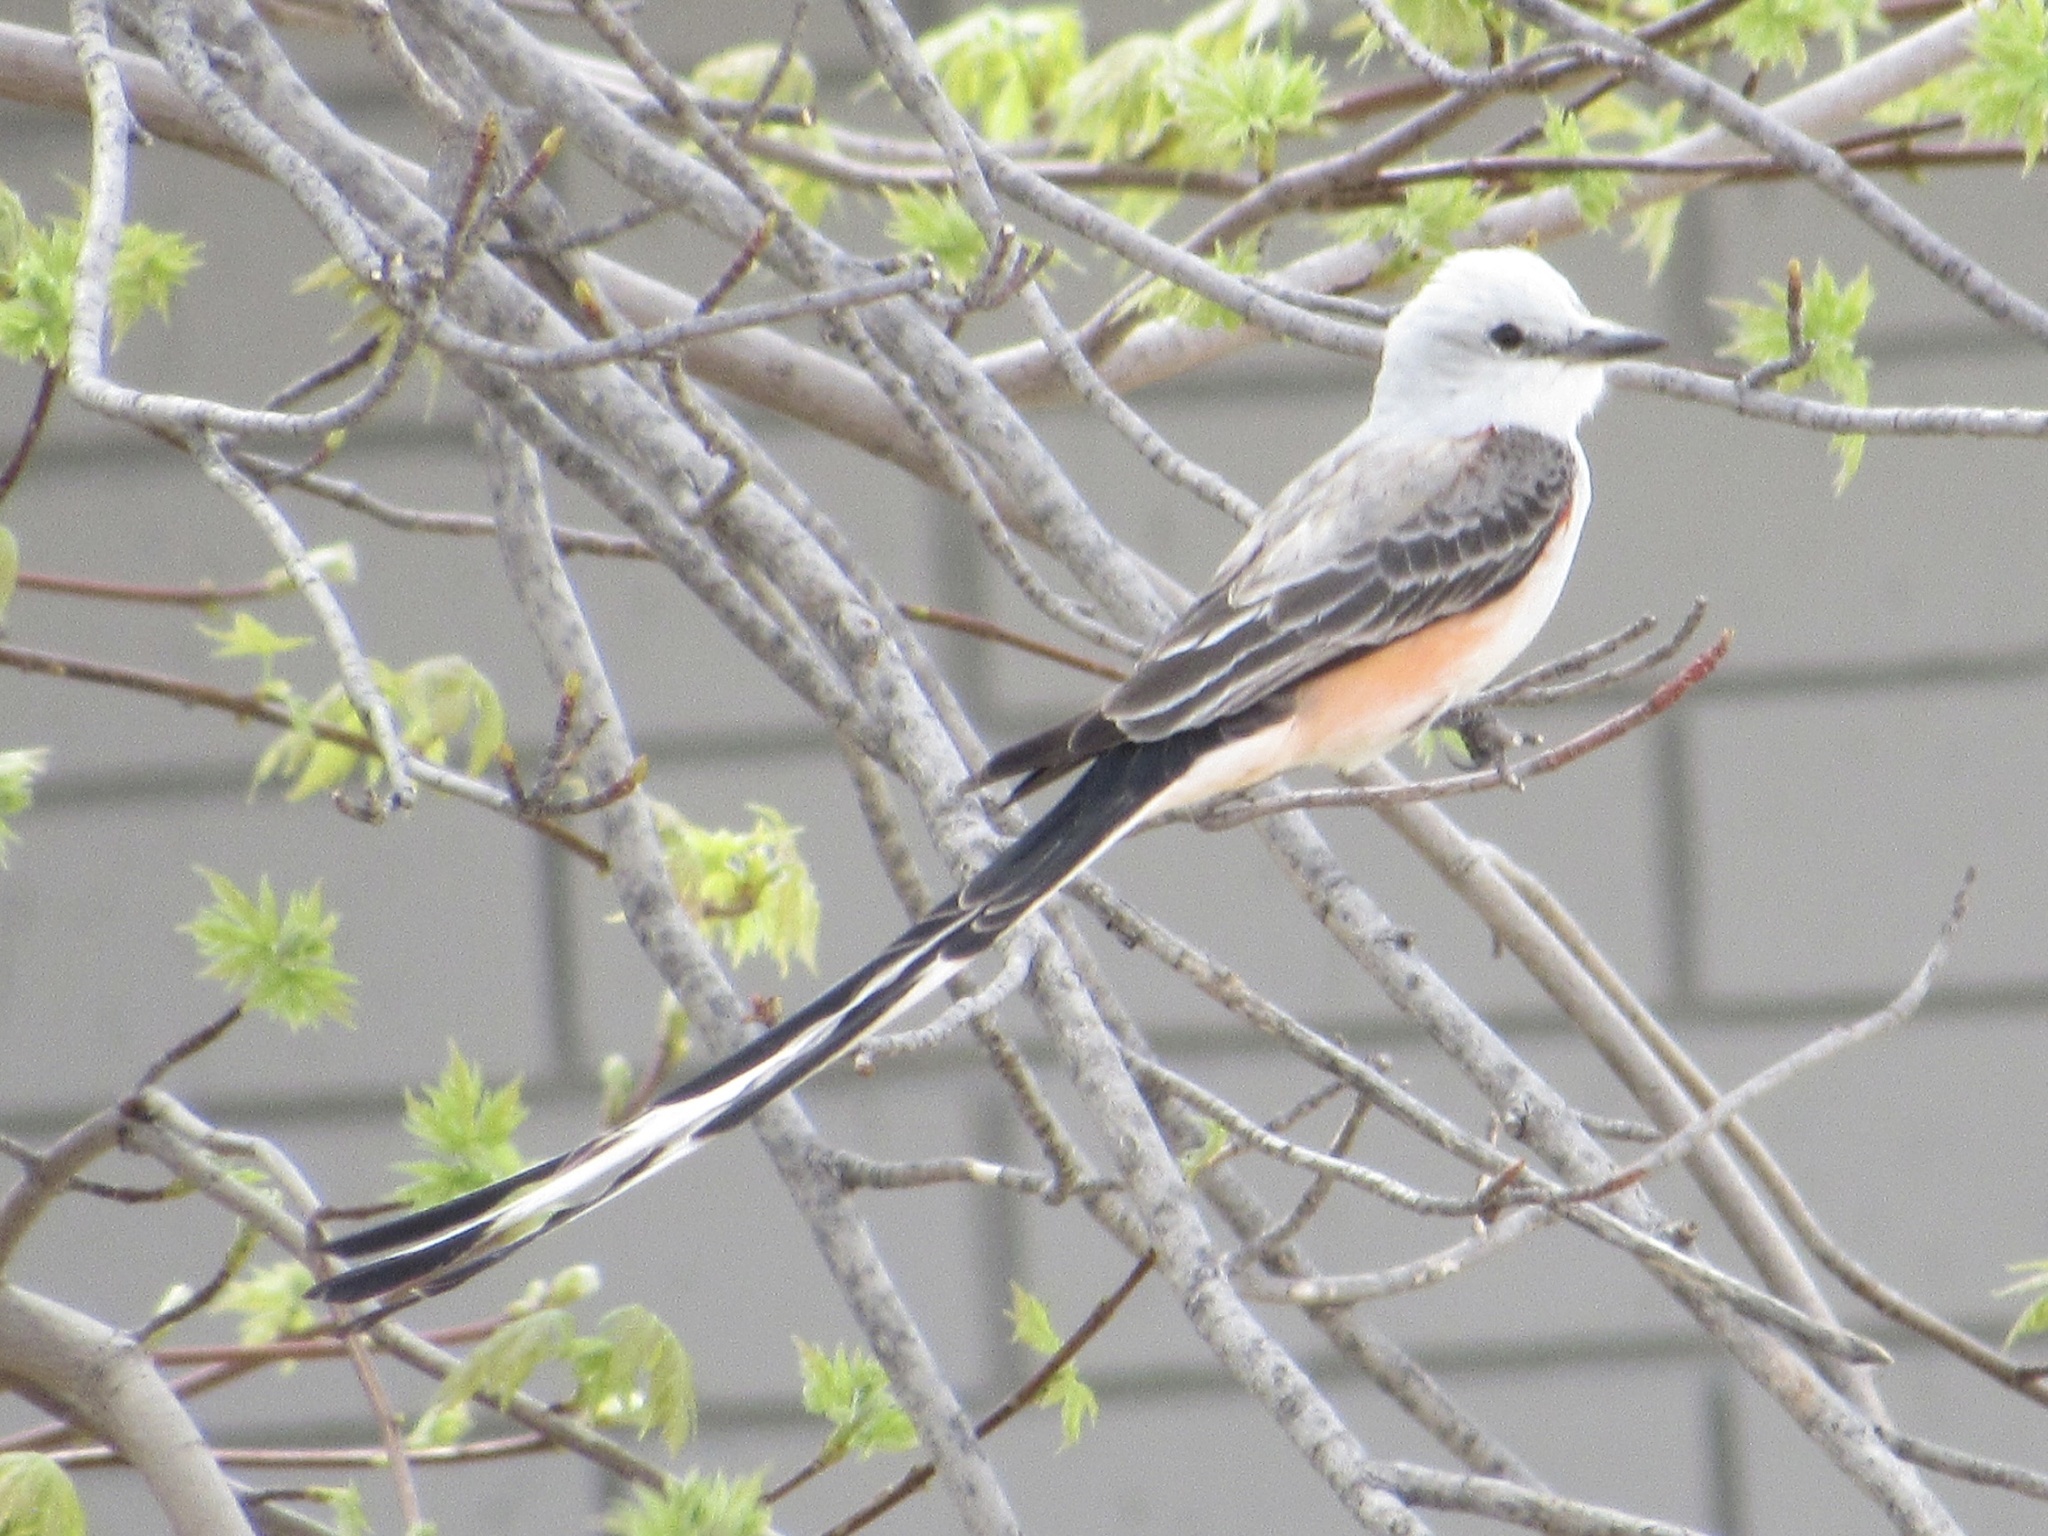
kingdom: Animalia
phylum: Chordata
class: Aves
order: Passeriformes
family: Tyrannidae
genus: Tyrannus
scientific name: Tyrannus forficatus
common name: Scissor-tailed flycatcher
